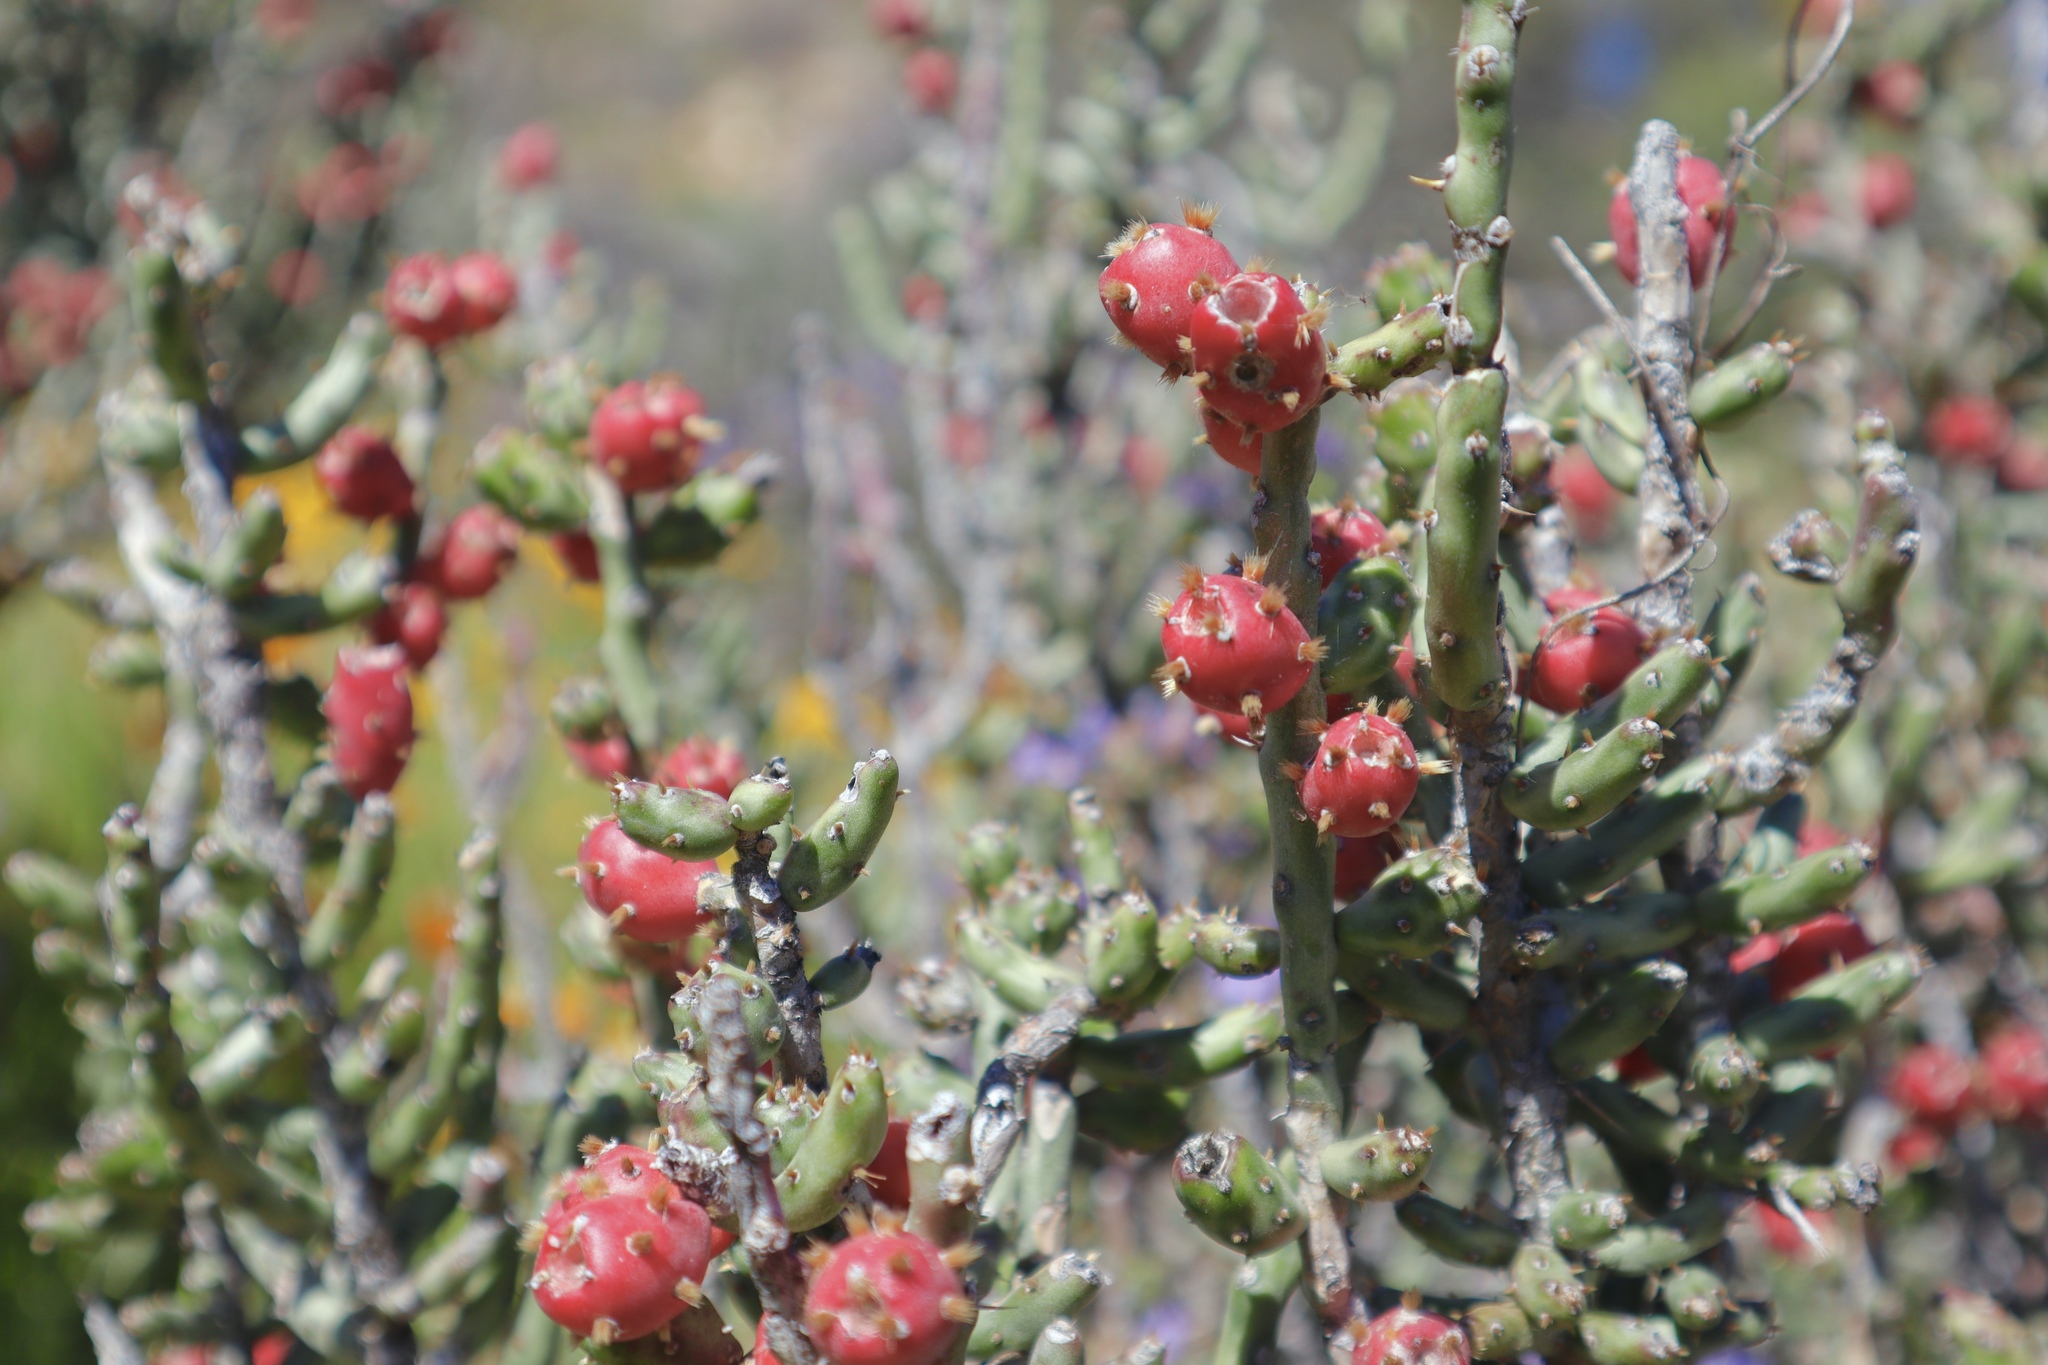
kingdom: Plantae
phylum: Tracheophyta
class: Magnoliopsida
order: Caryophyllales
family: Cactaceae
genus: Cylindropuntia
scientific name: Cylindropuntia leptocaulis
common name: Christmas cactus
